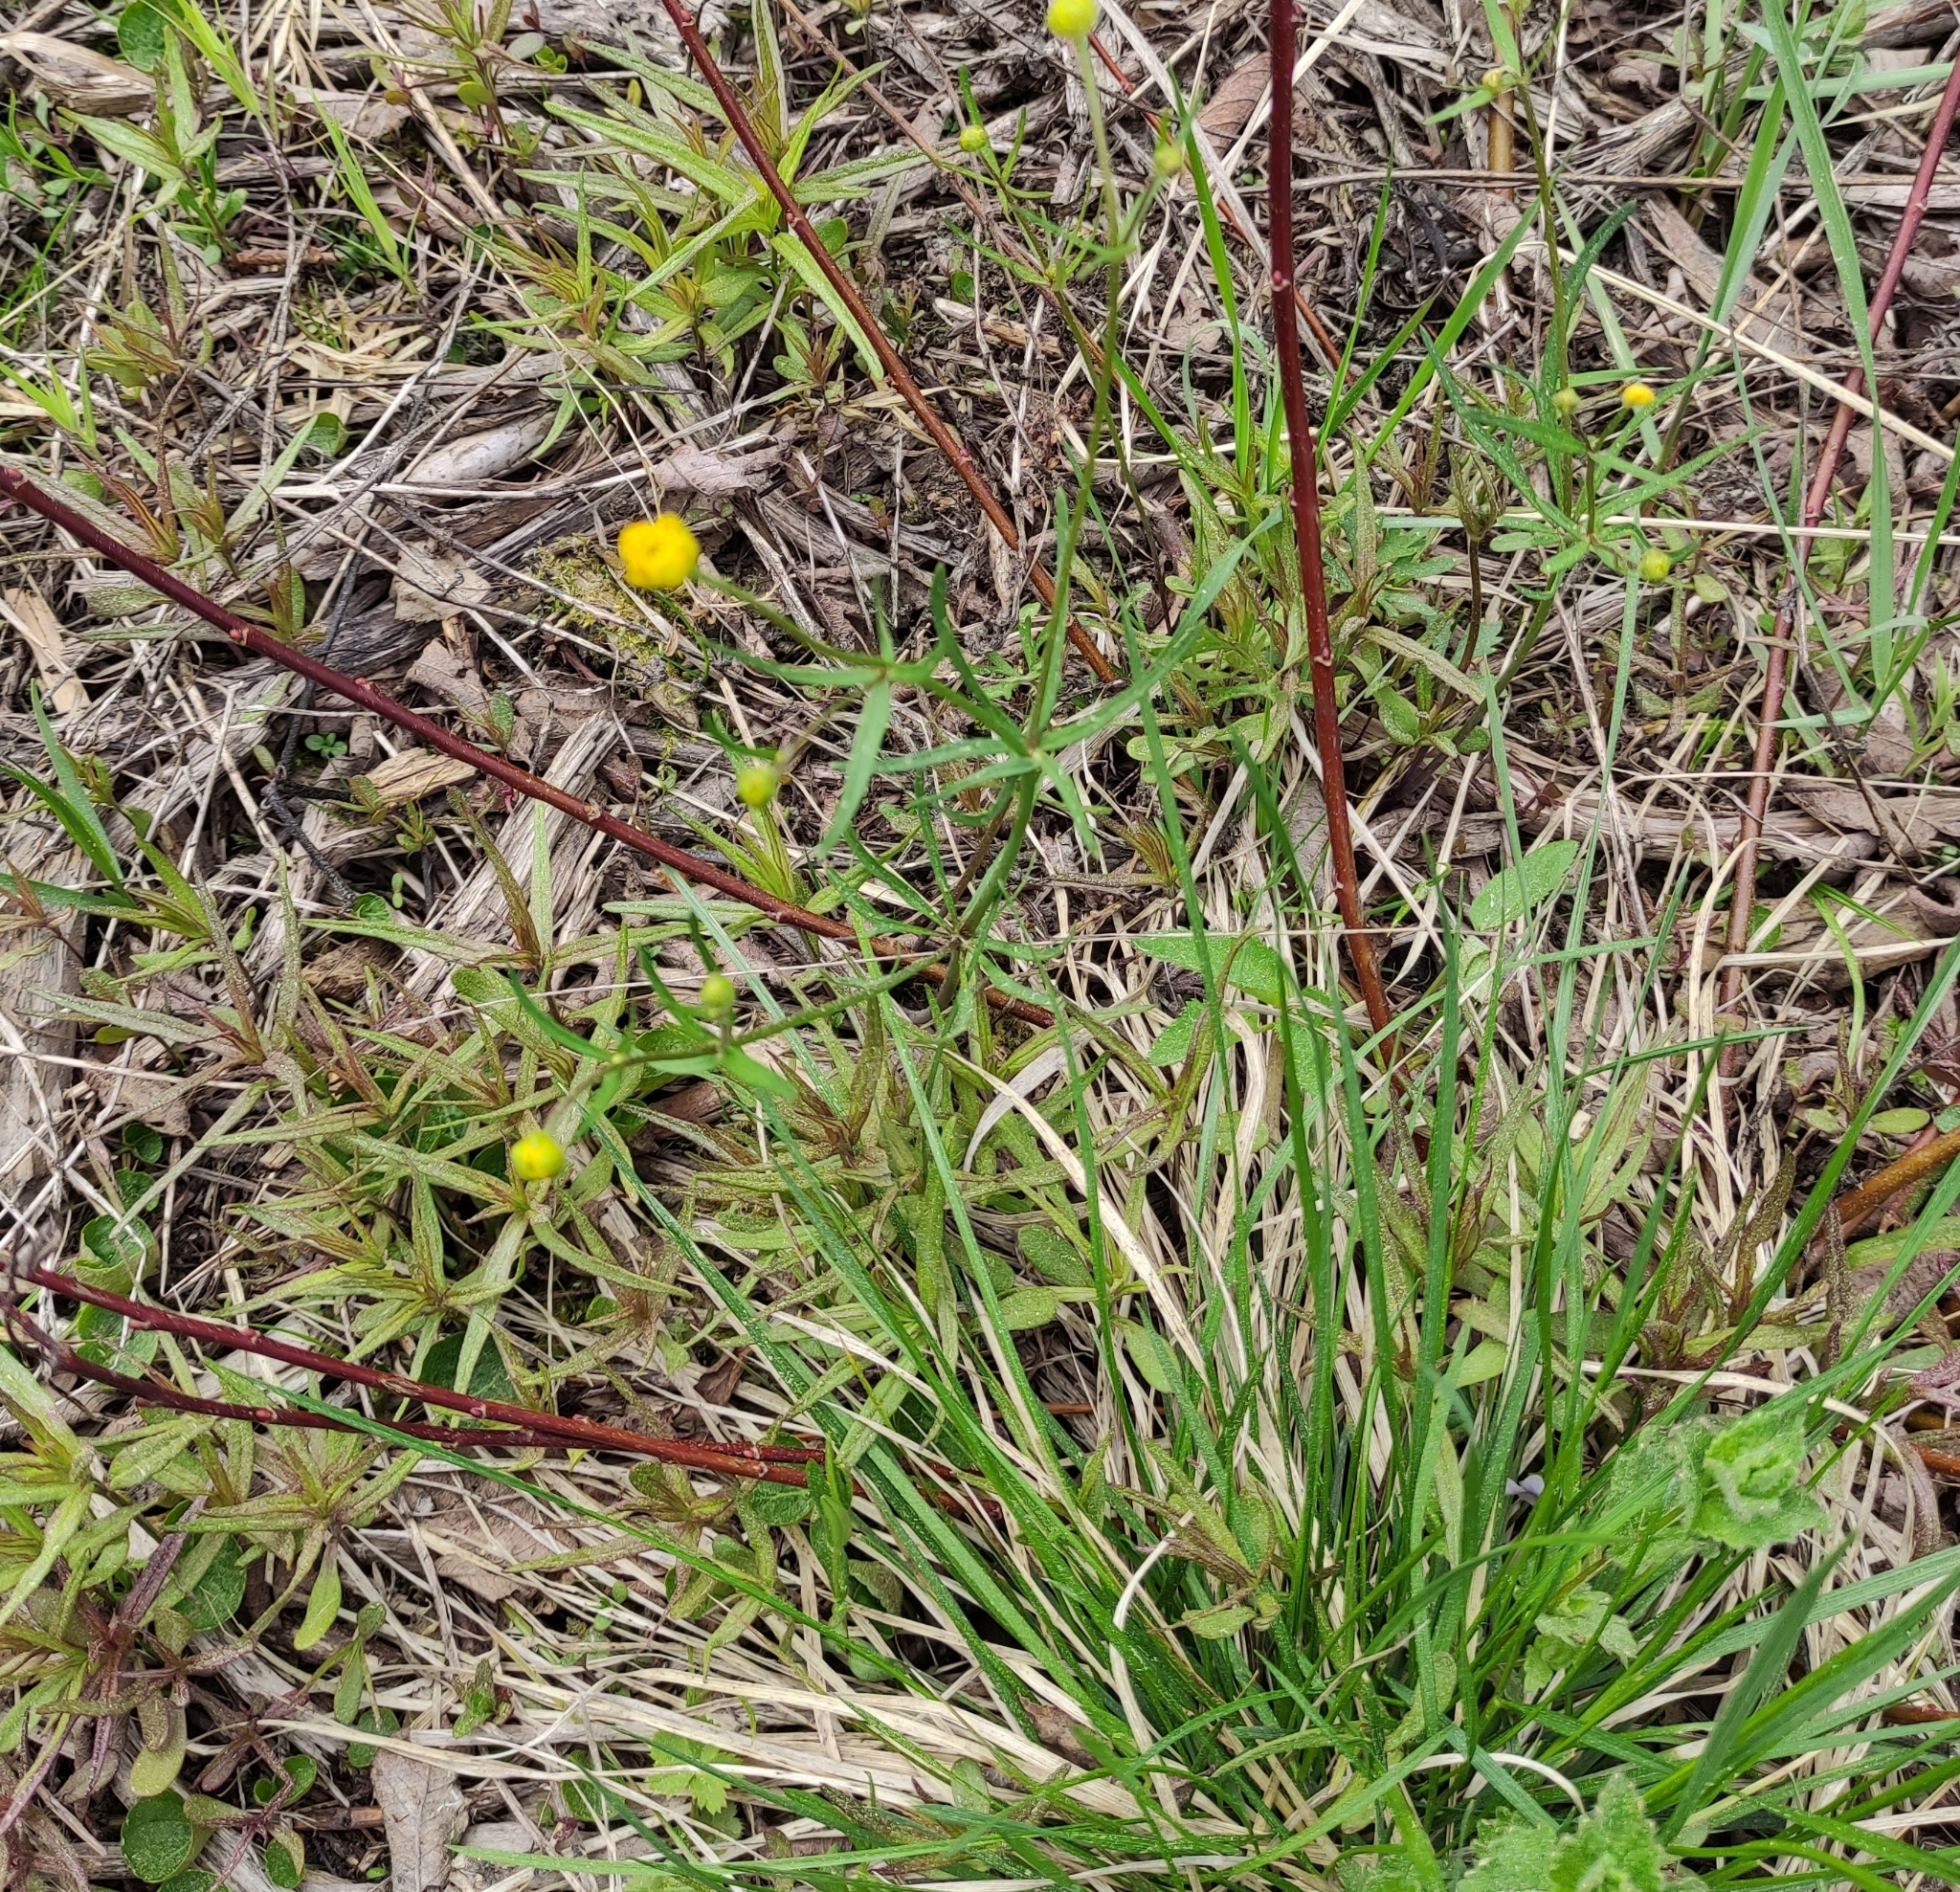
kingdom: Plantae
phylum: Tracheophyta
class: Magnoliopsida
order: Ranunculales
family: Ranunculaceae
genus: Ranunculus
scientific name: Ranunculus auricomus
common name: Goldilocks buttercup
